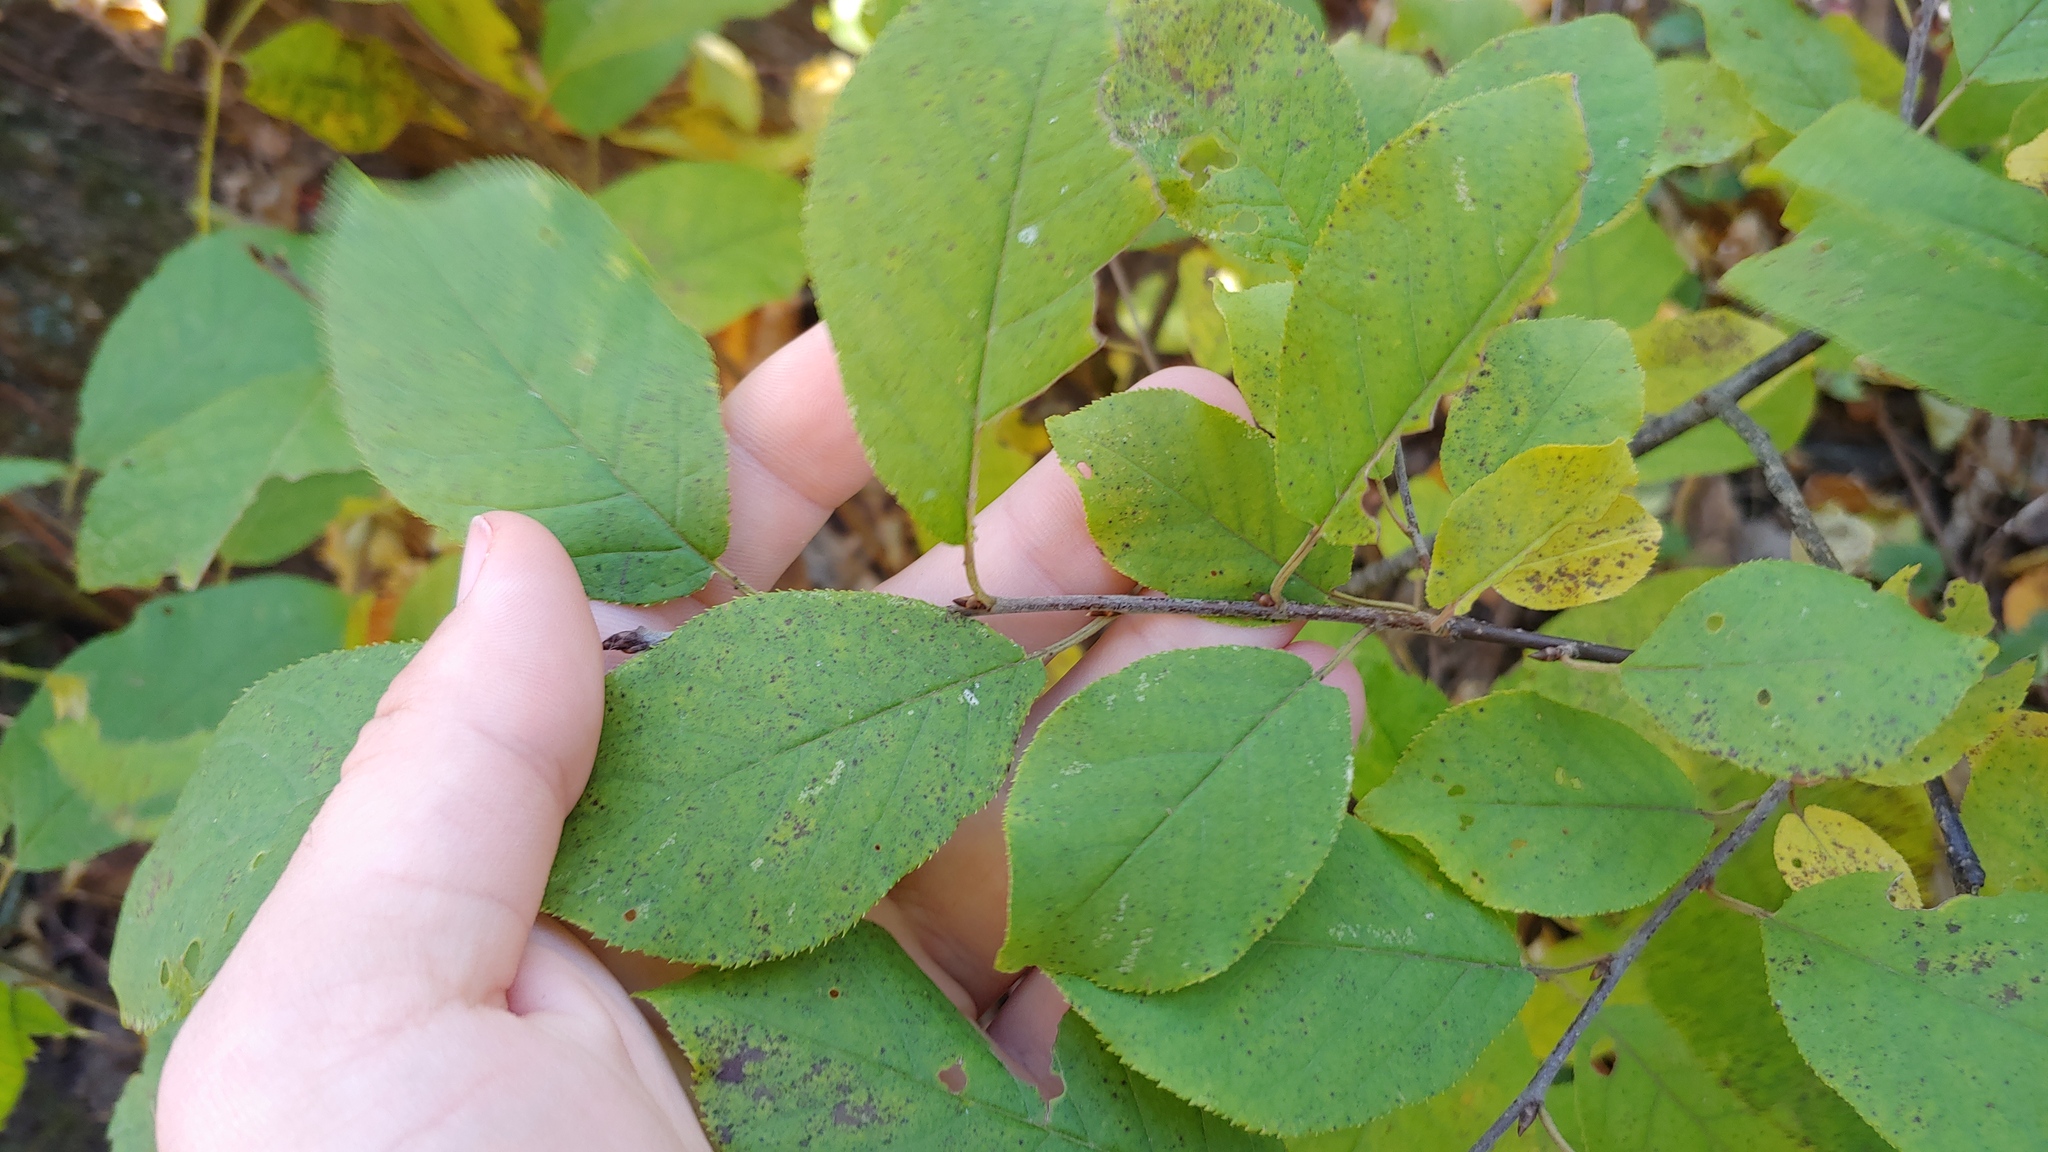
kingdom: Plantae
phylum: Tracheophyta
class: Magnoliopsida
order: Rosales
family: Rosaceae
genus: Prunus
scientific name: Prunus virginiana
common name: Chokecherry
